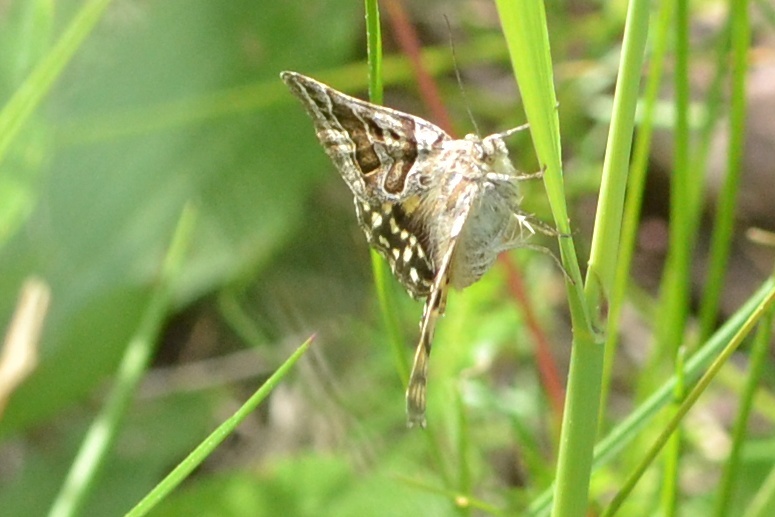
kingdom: Animalia
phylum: Arthropoda
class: Insecta
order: Lepidoptera
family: Erebidae
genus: Callistege
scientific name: Callistege mi
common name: Mother shipton
